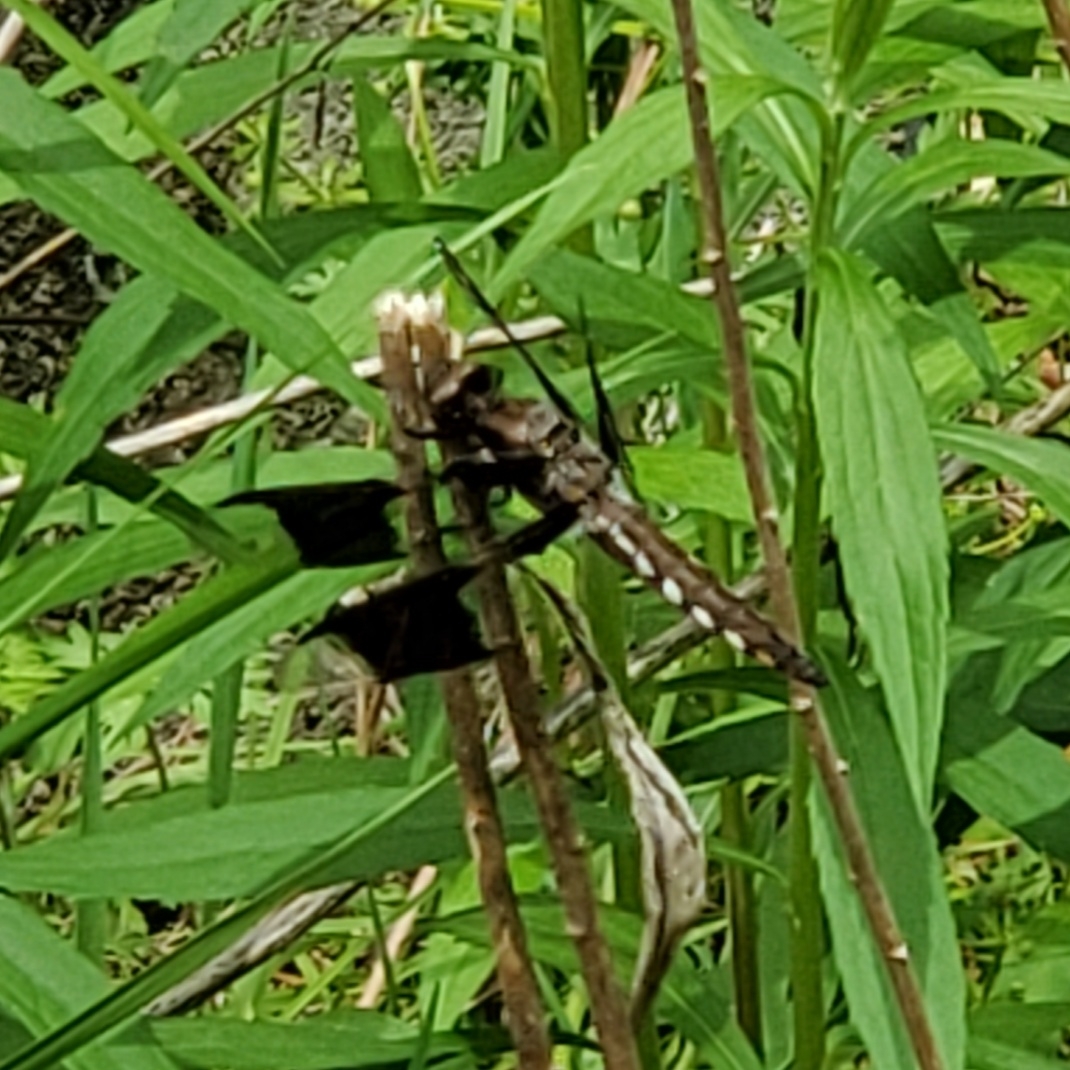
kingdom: Animalia
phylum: Arthropoda
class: Insecta
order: Odonata
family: Libellulidae
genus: Plathemis
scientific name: Plathemis lydia
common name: Common whitetail
